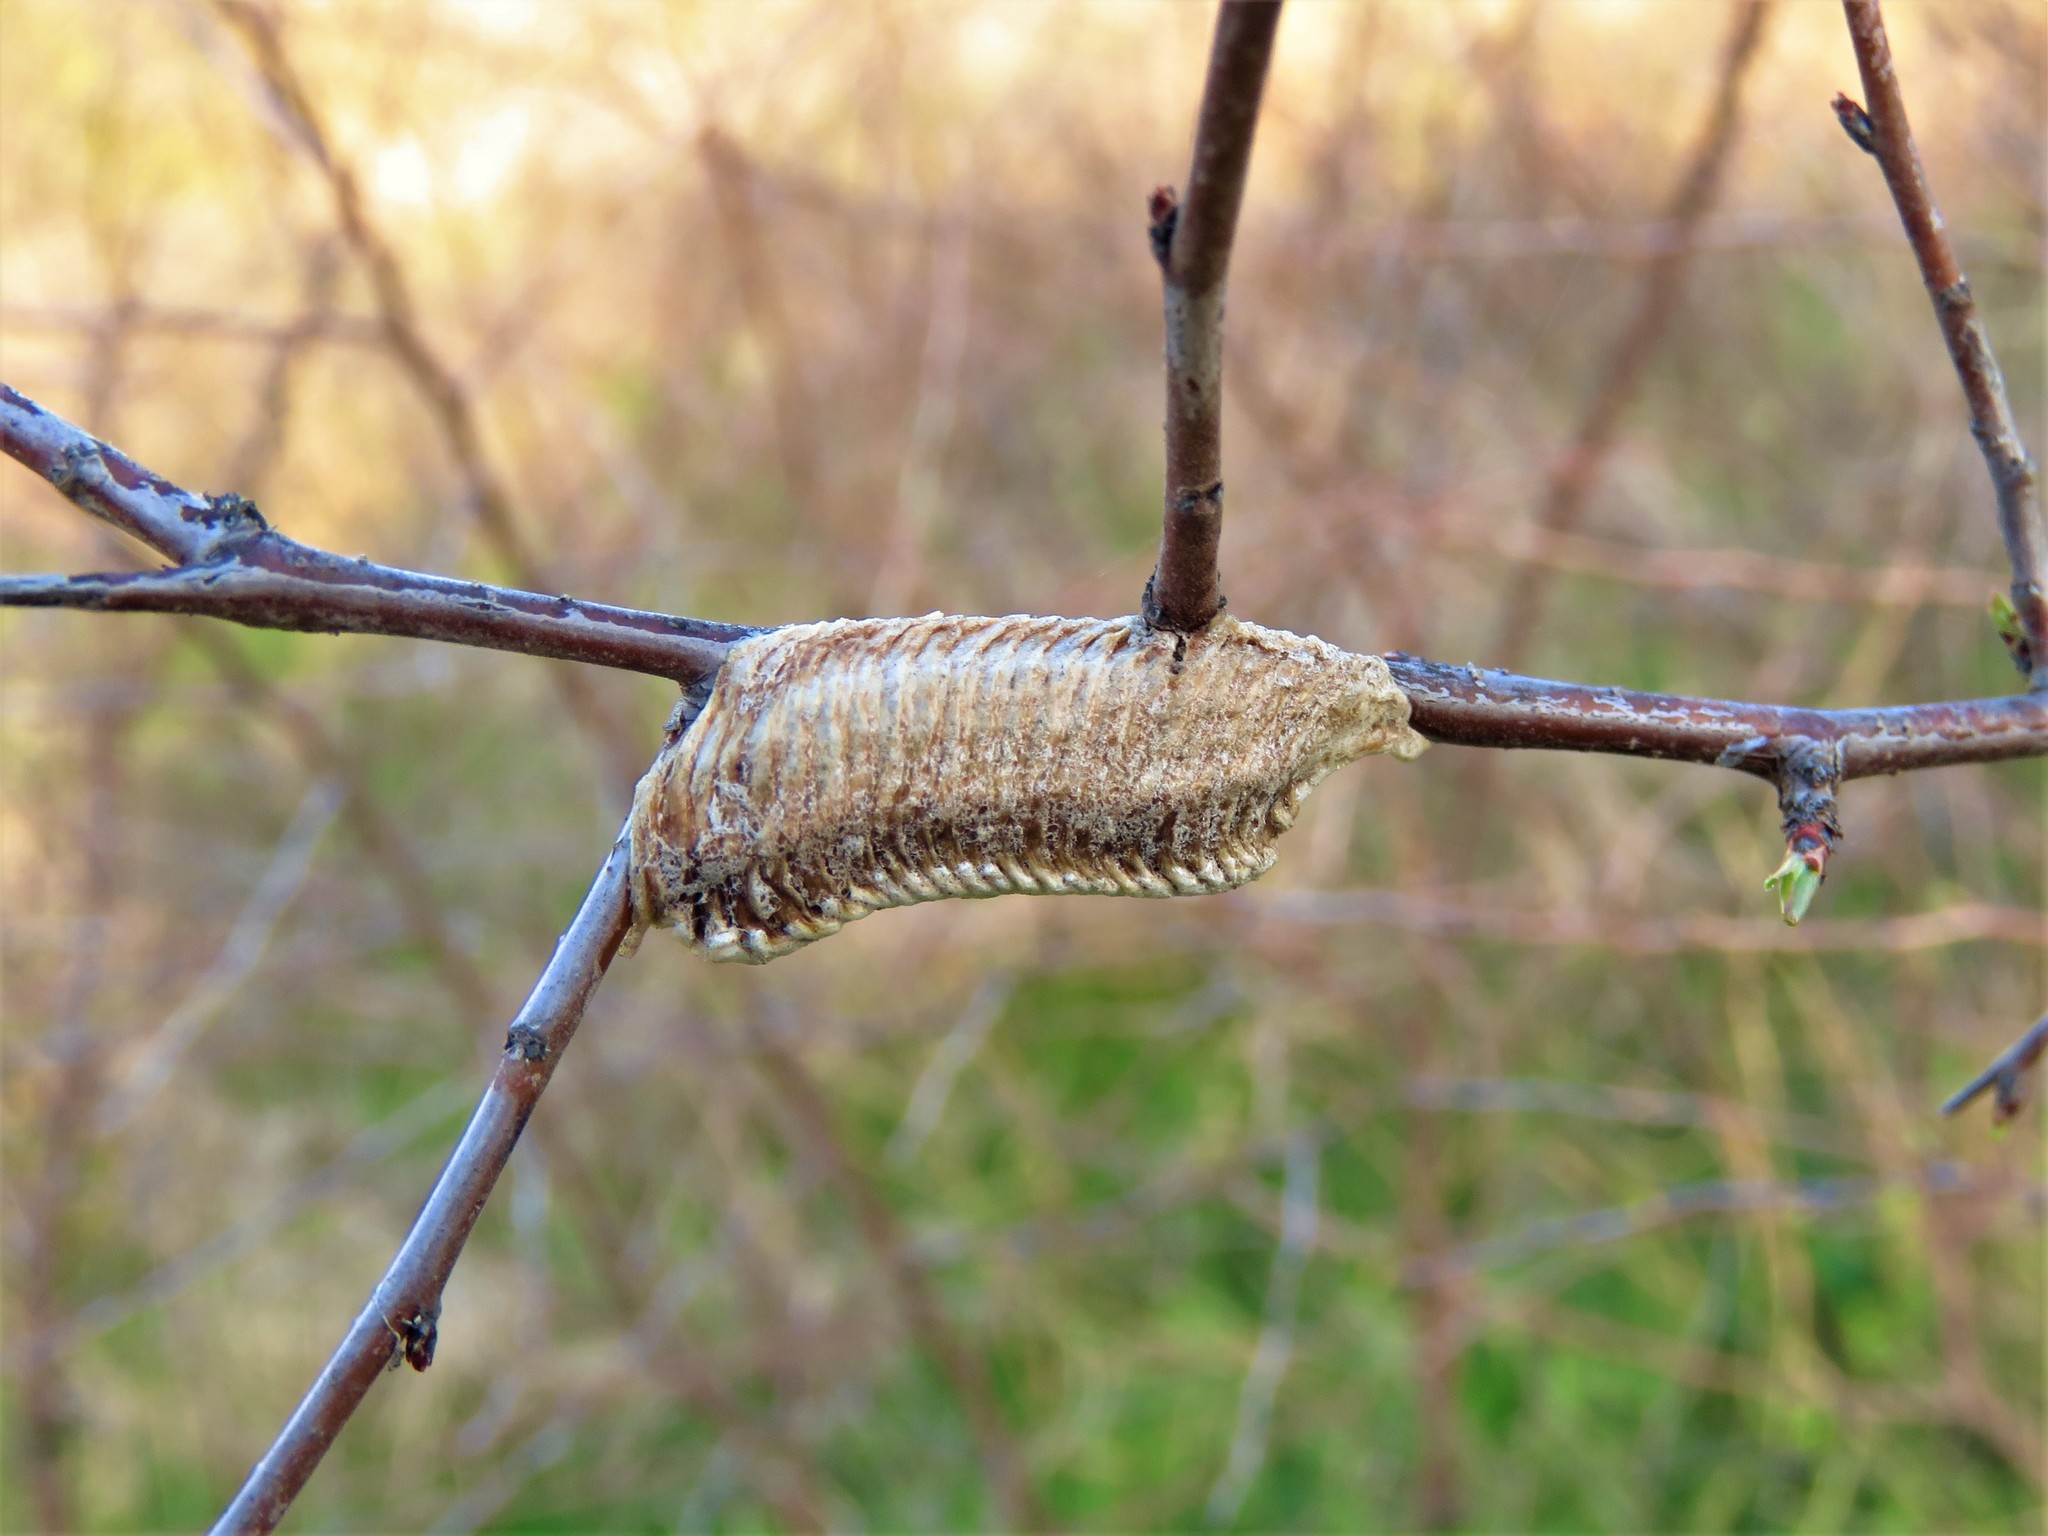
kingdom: Animalia
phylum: Arthropoda
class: Insecta
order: Mantodea
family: Mantidae
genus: Stagmomantis
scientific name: Stagmomantis carolina
